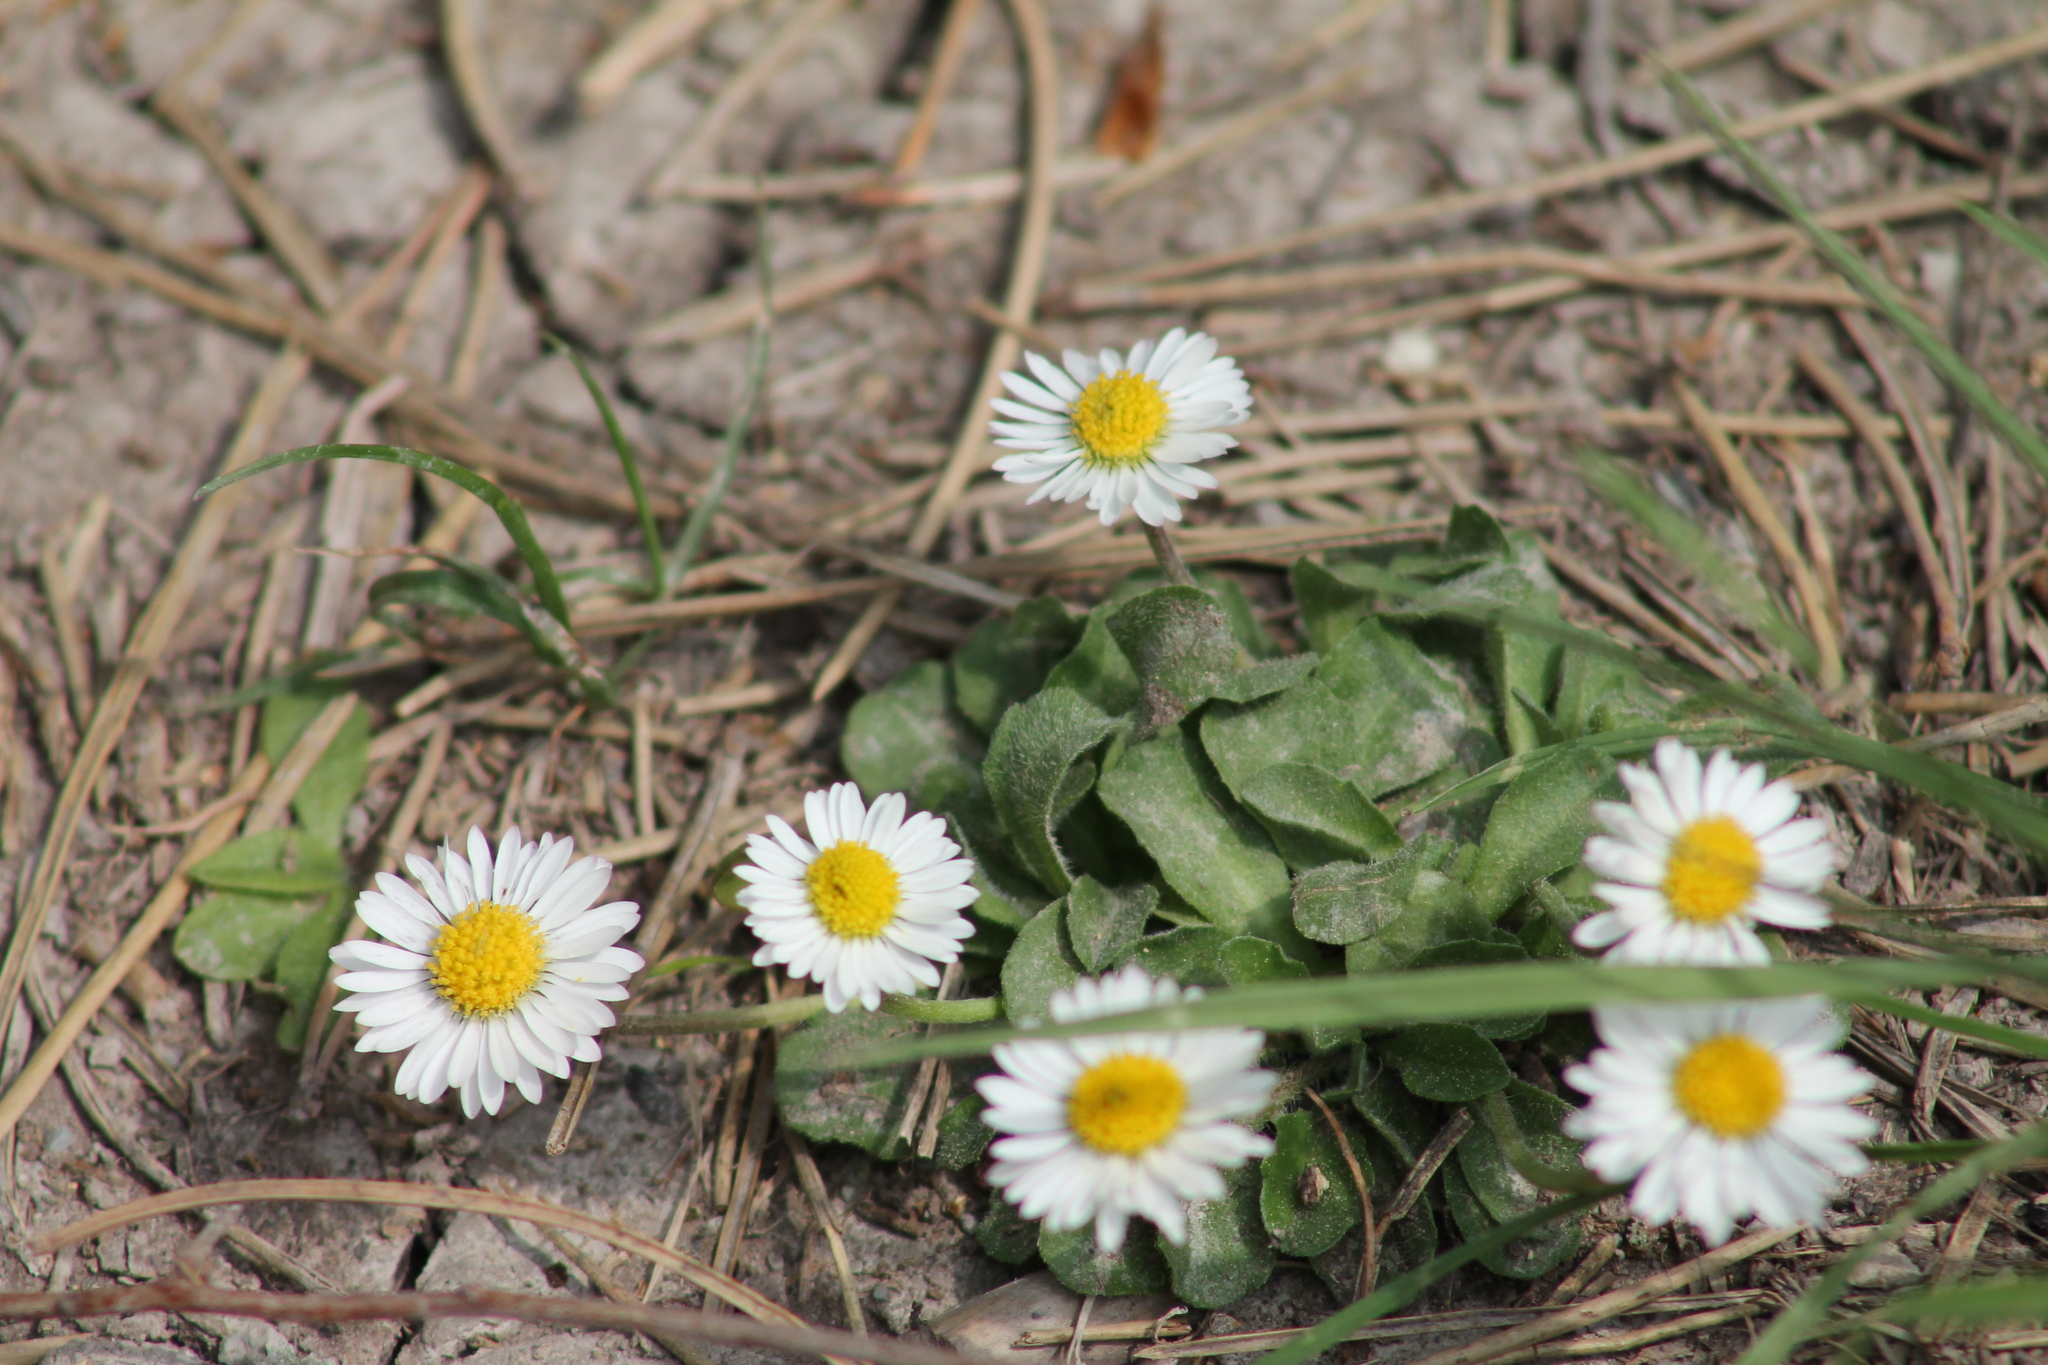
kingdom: Plantae
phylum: Tracheophyta
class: Magnoliopsida
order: Asterales
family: Asteraceae
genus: Bellis
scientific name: Bellis perennis
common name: Lawndaisy
